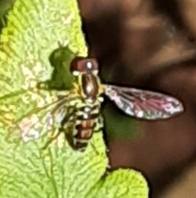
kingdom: Animalia
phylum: Arthropoda
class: Insecta
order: Diptera
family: Syrphidae
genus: Toxomerus
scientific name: Toxomerus geminatus
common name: Eastern calligrapher
